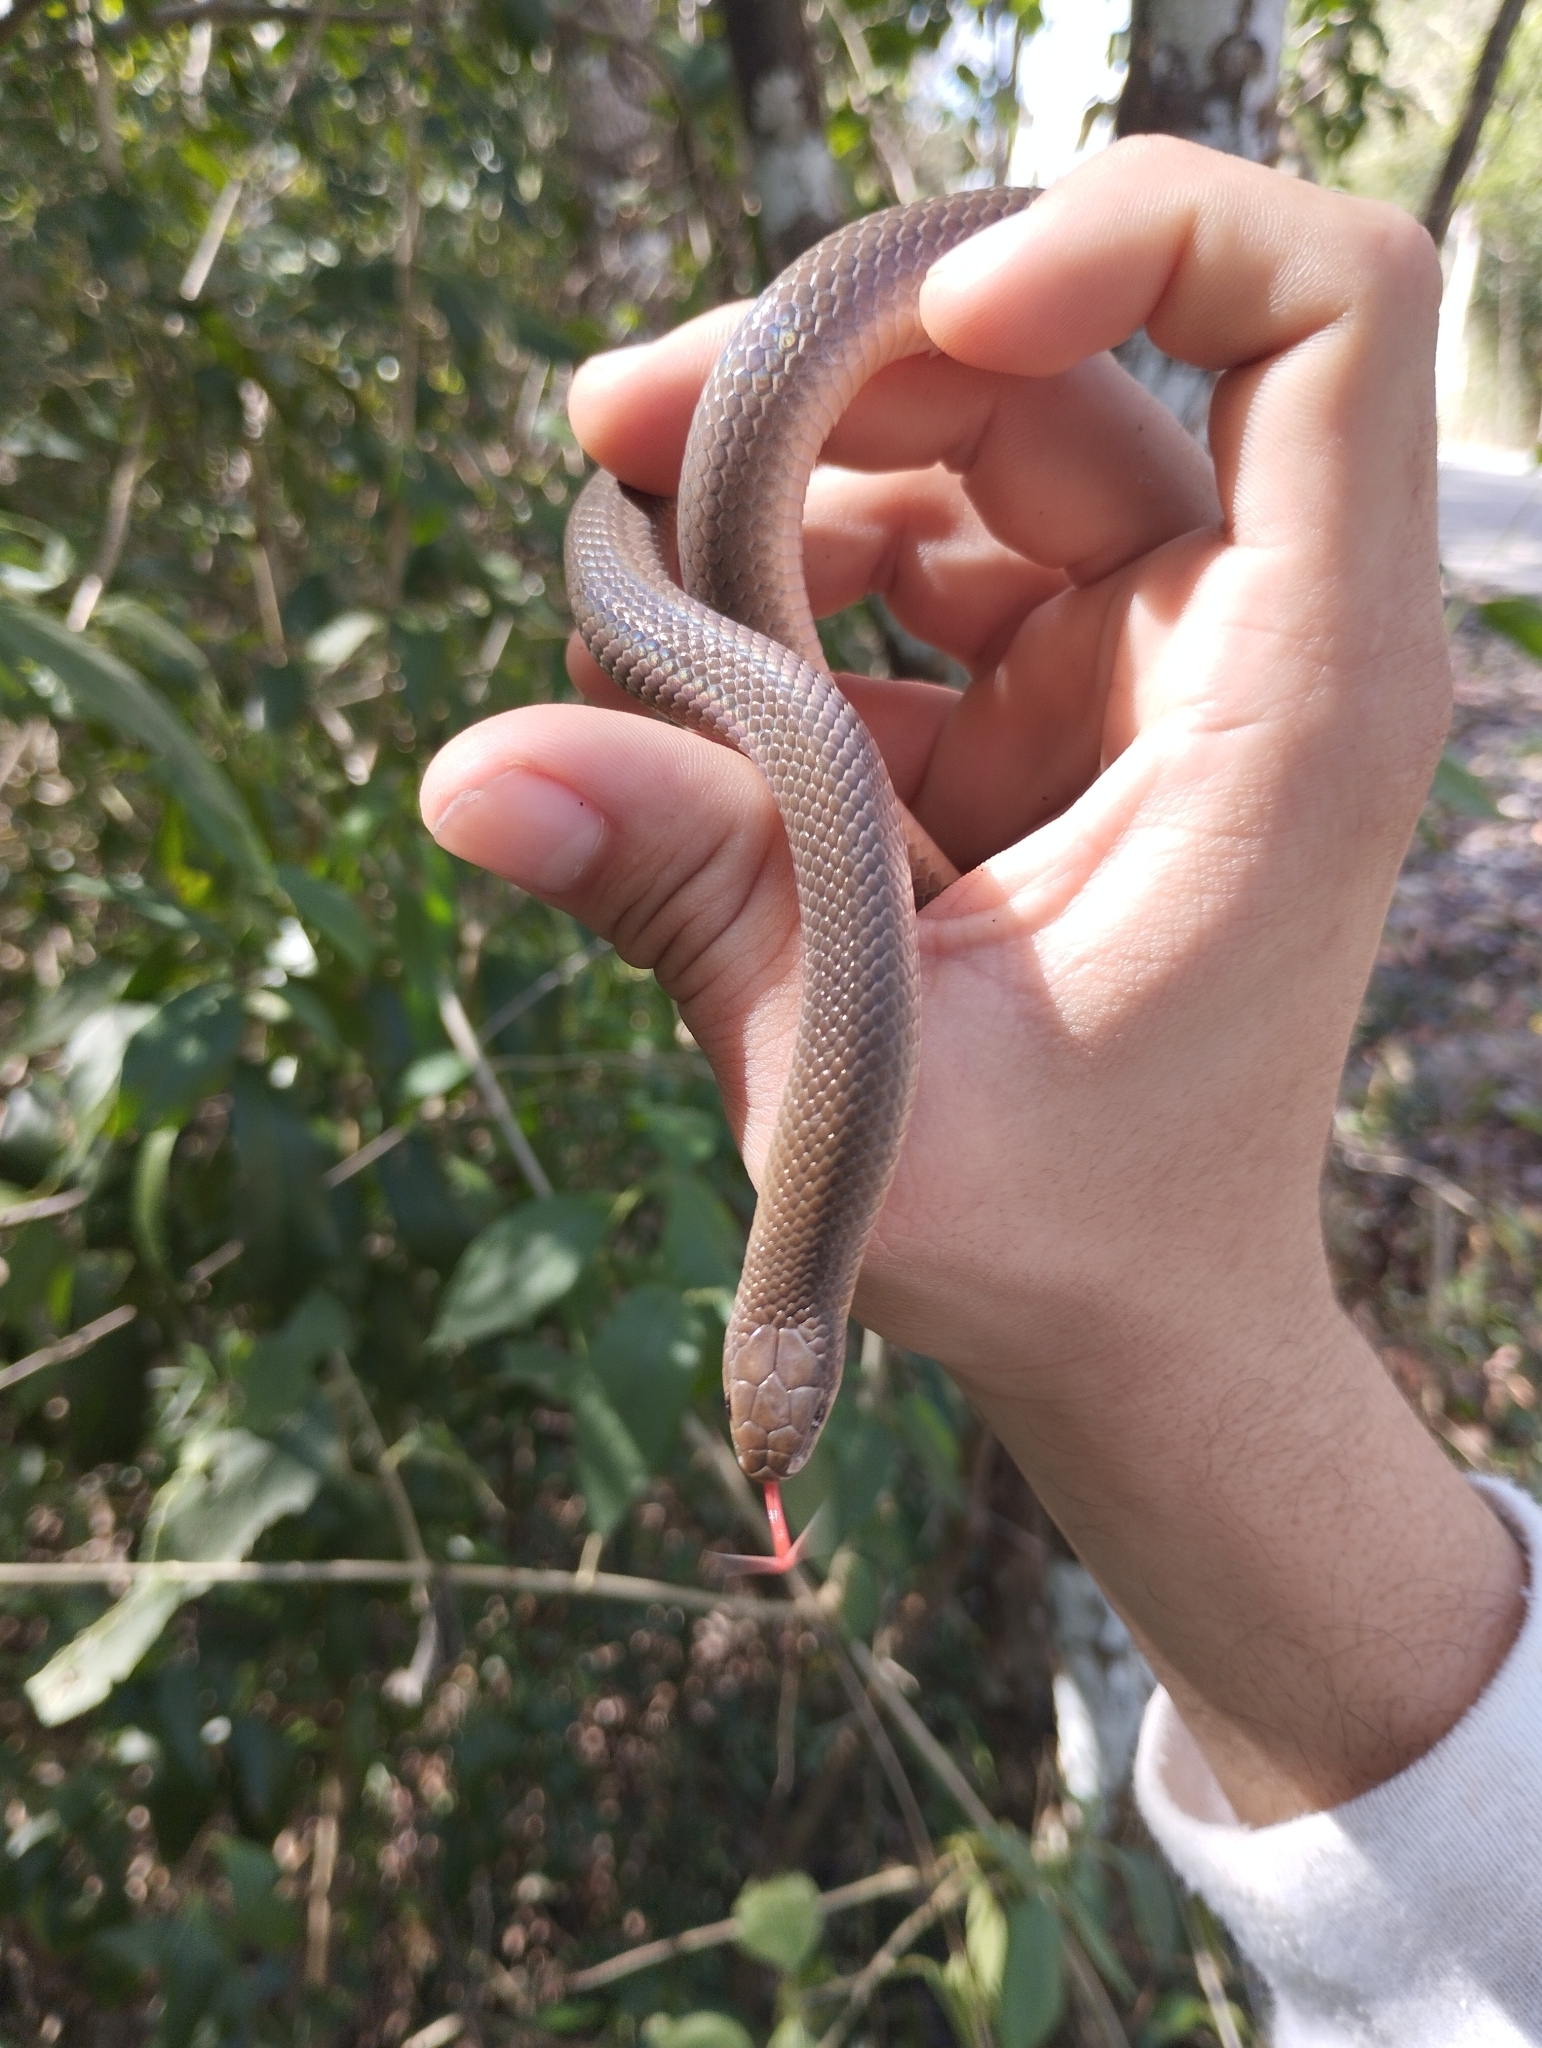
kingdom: Animalia
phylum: Chordata
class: Squamata
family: Colubridae
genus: Stenorrhina
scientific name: Stenorrhina freminvillei
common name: Blood snake
